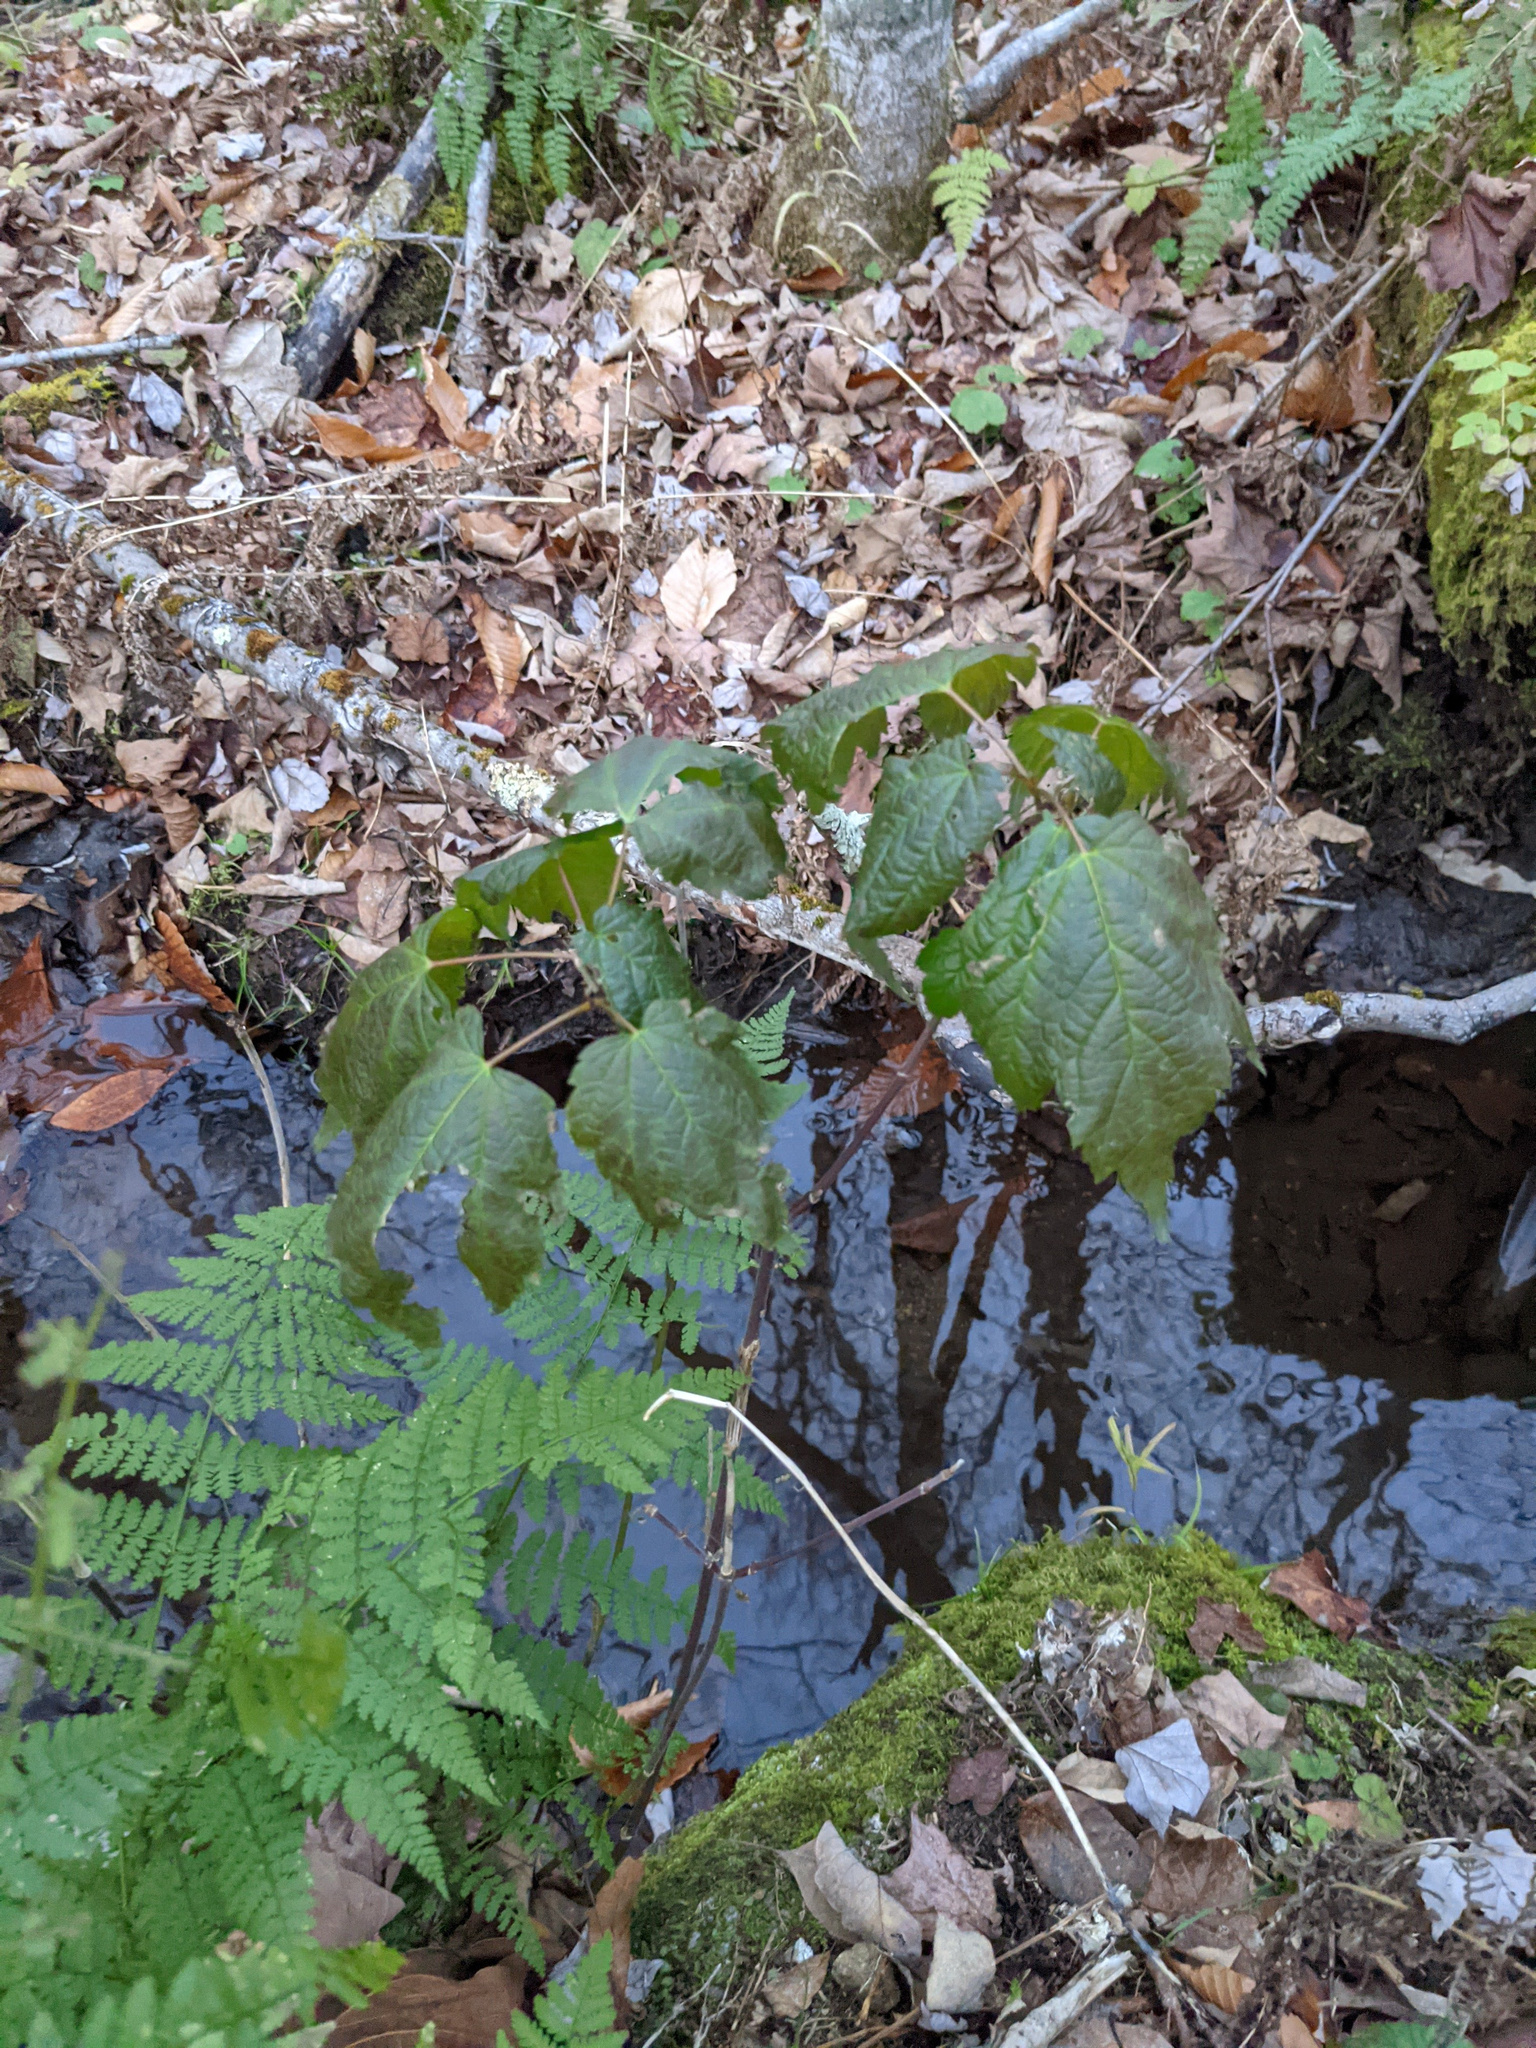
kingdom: Plantae
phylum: Tracheophyta
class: Magnoliopsida
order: Sapindales
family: Sapindaceae
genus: Acer
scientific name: Acer rubrum
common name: Red maple
